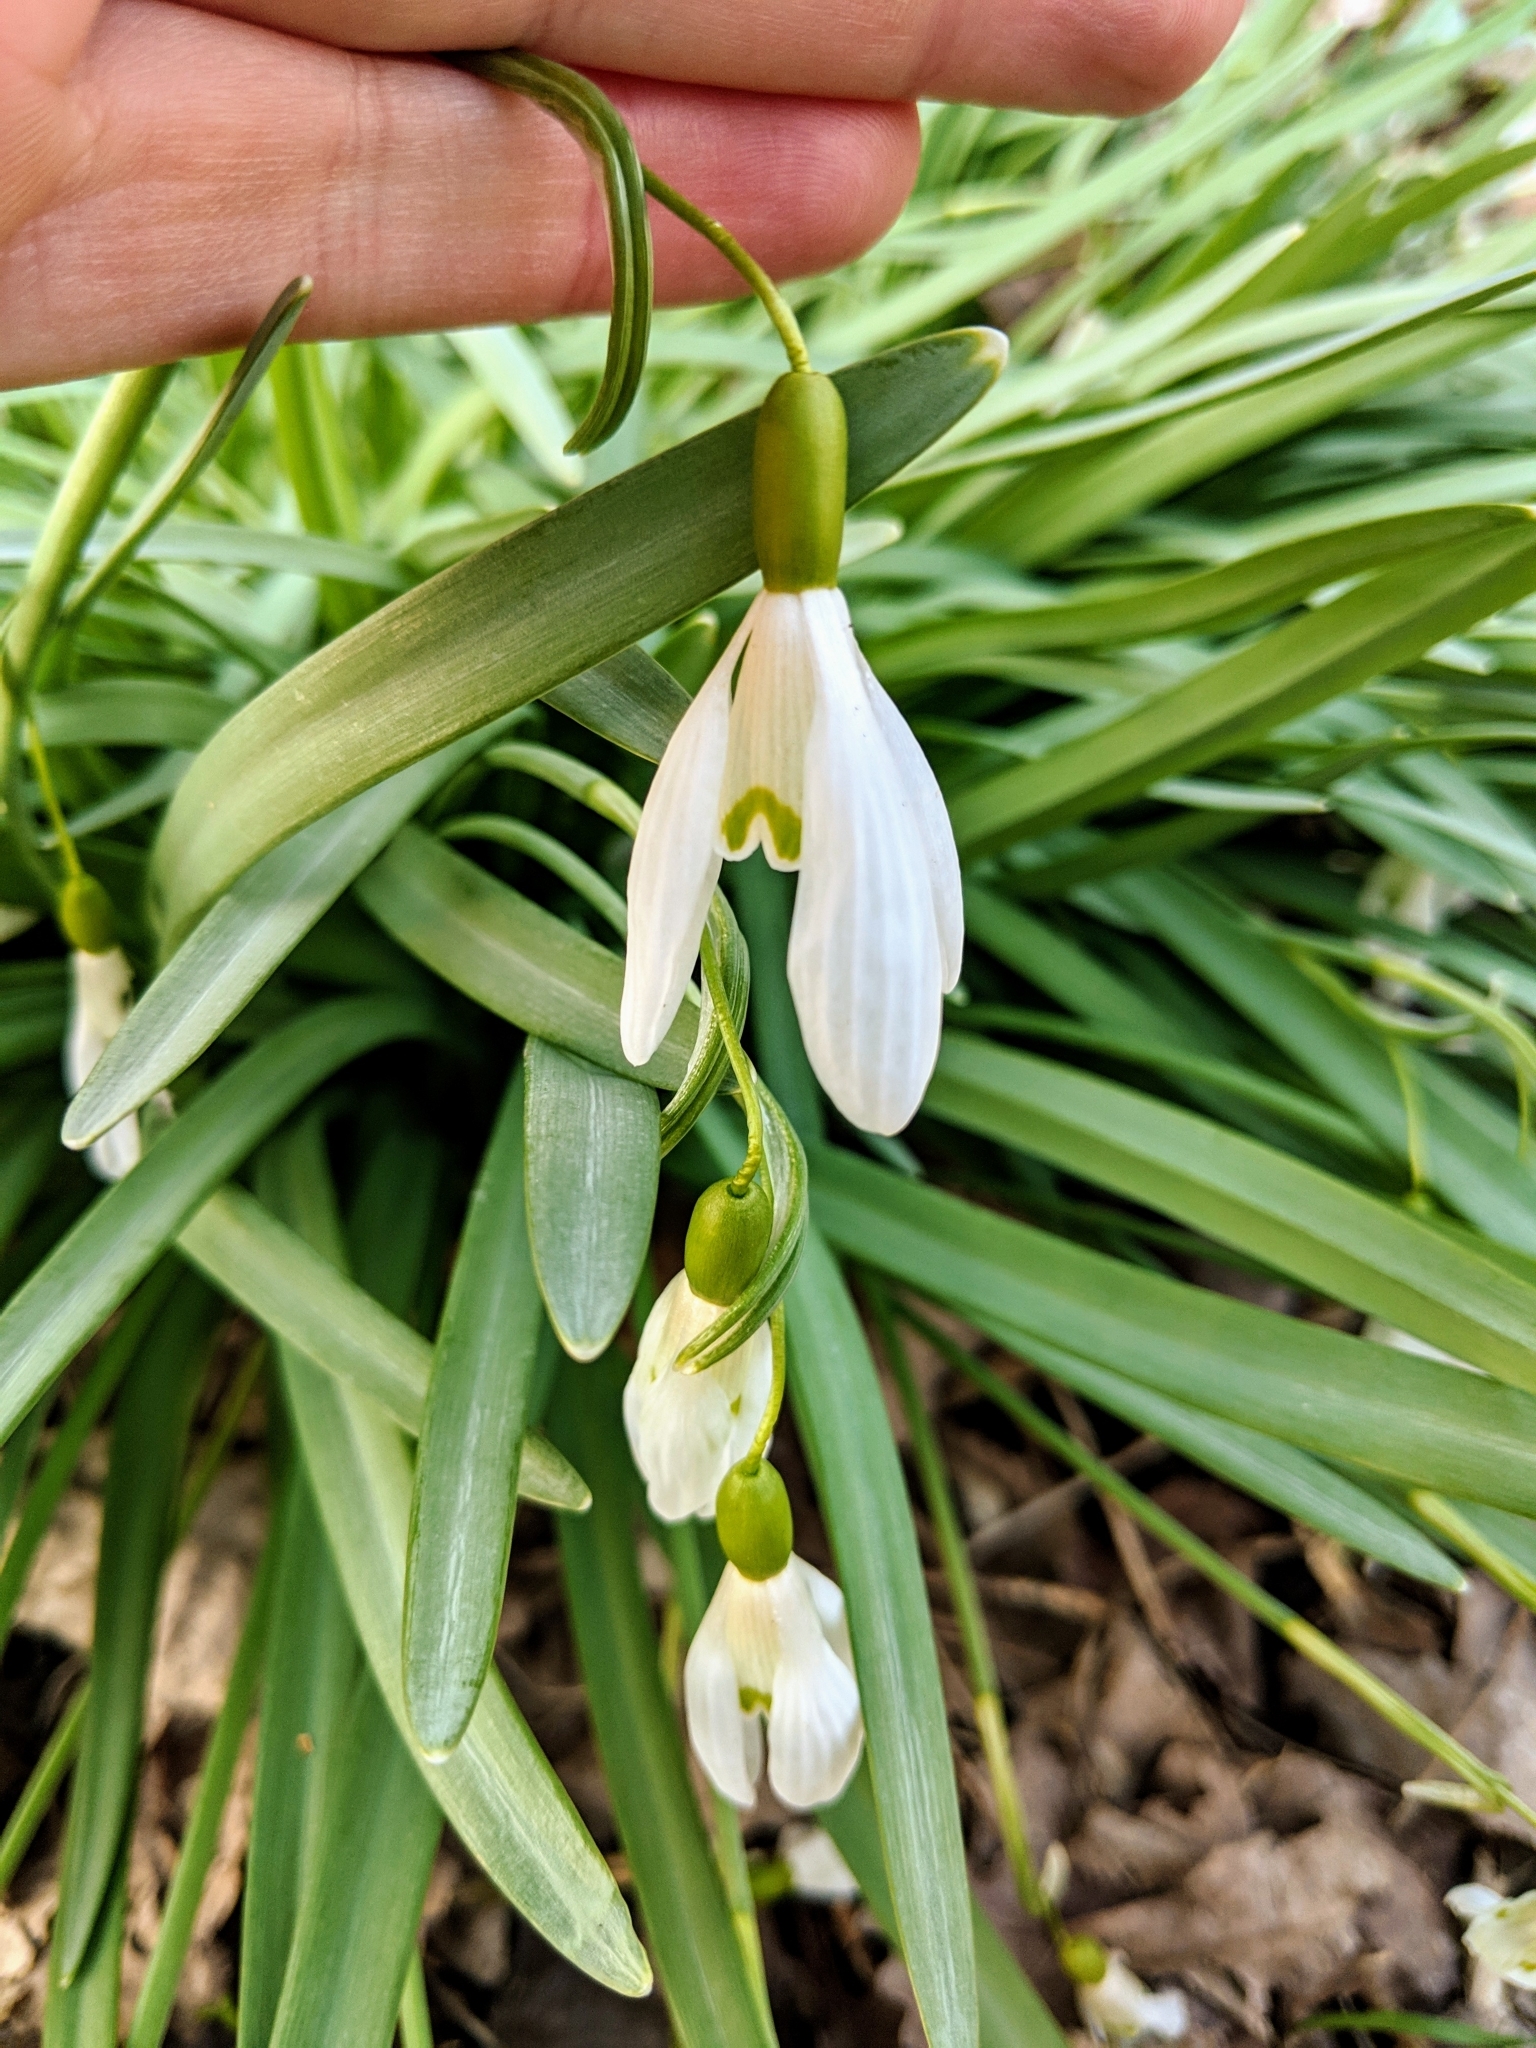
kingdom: Plantae
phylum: Tracheophyta
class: Liliopsida
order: Asparagales
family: Amaryllidaceae
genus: Galanthus
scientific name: Galanthus nivalis
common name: Snowdrop
